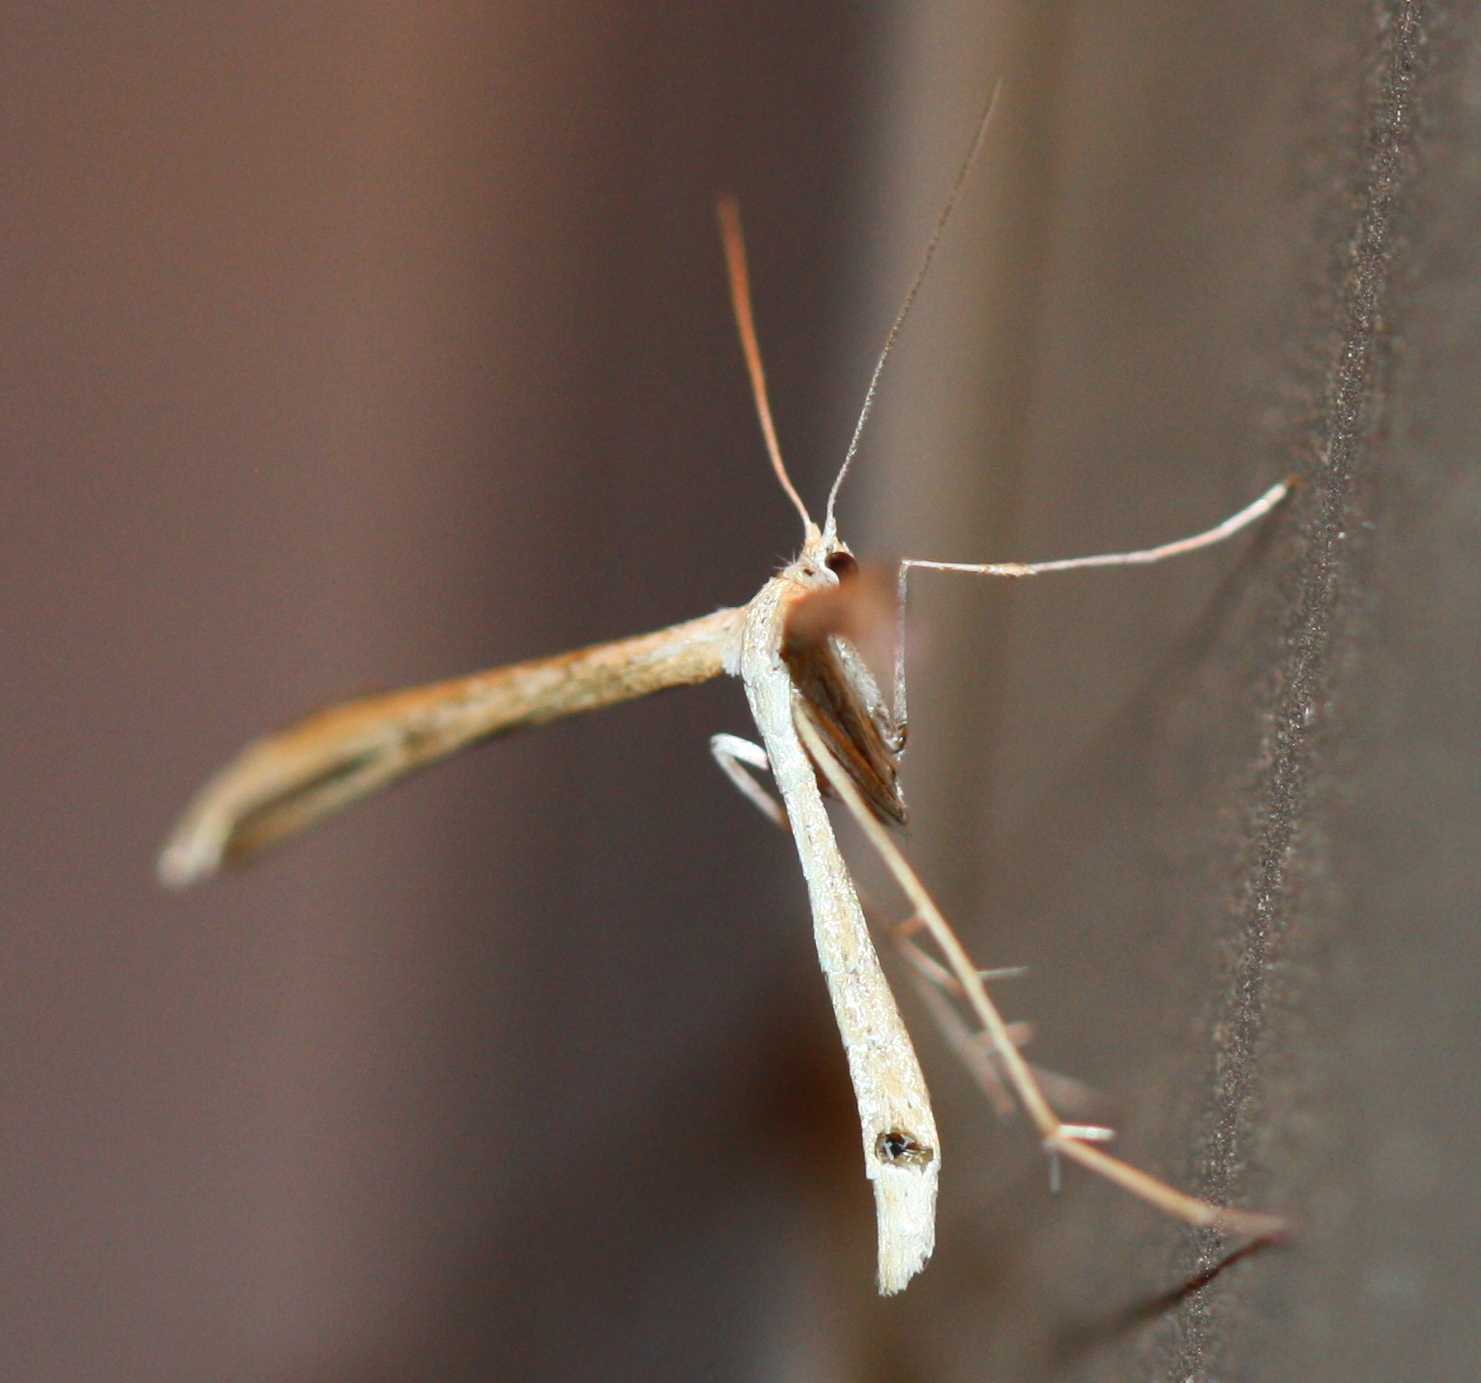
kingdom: Animalia
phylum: Arthropoda
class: Insecta
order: Lepidoptera
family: Pterophoridae
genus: Emmelina
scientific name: Emmelina monodactyla
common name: Common plume
